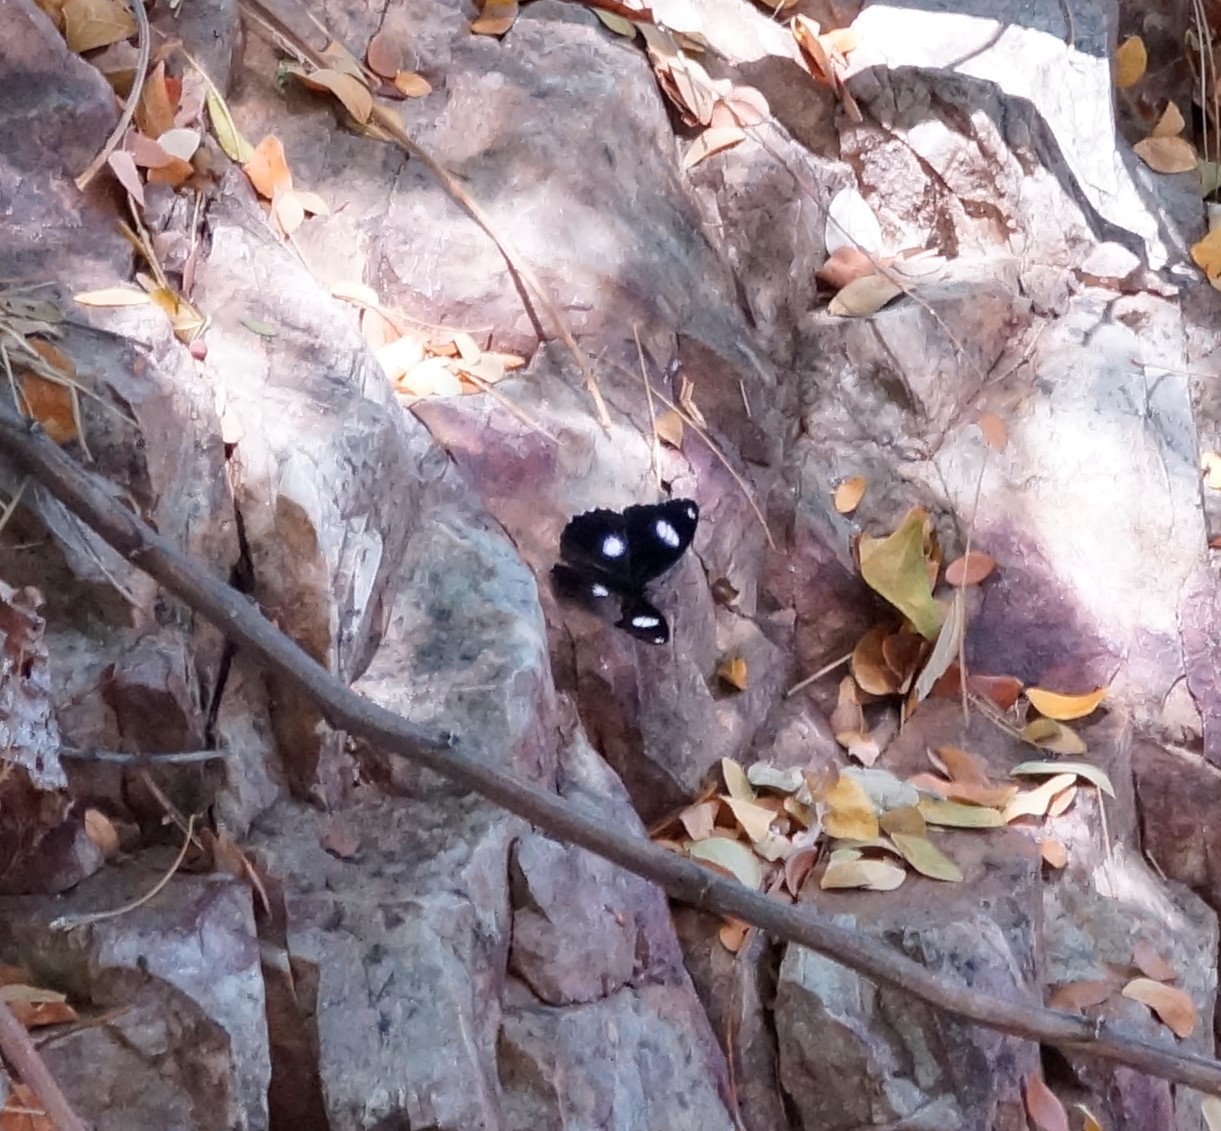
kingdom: Animalia
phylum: Arthropoda
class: Insecta
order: Lepidoptera
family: Nymphalidae
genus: Hypolimnas
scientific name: Hypolimnas bolina
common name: Great eggfly
